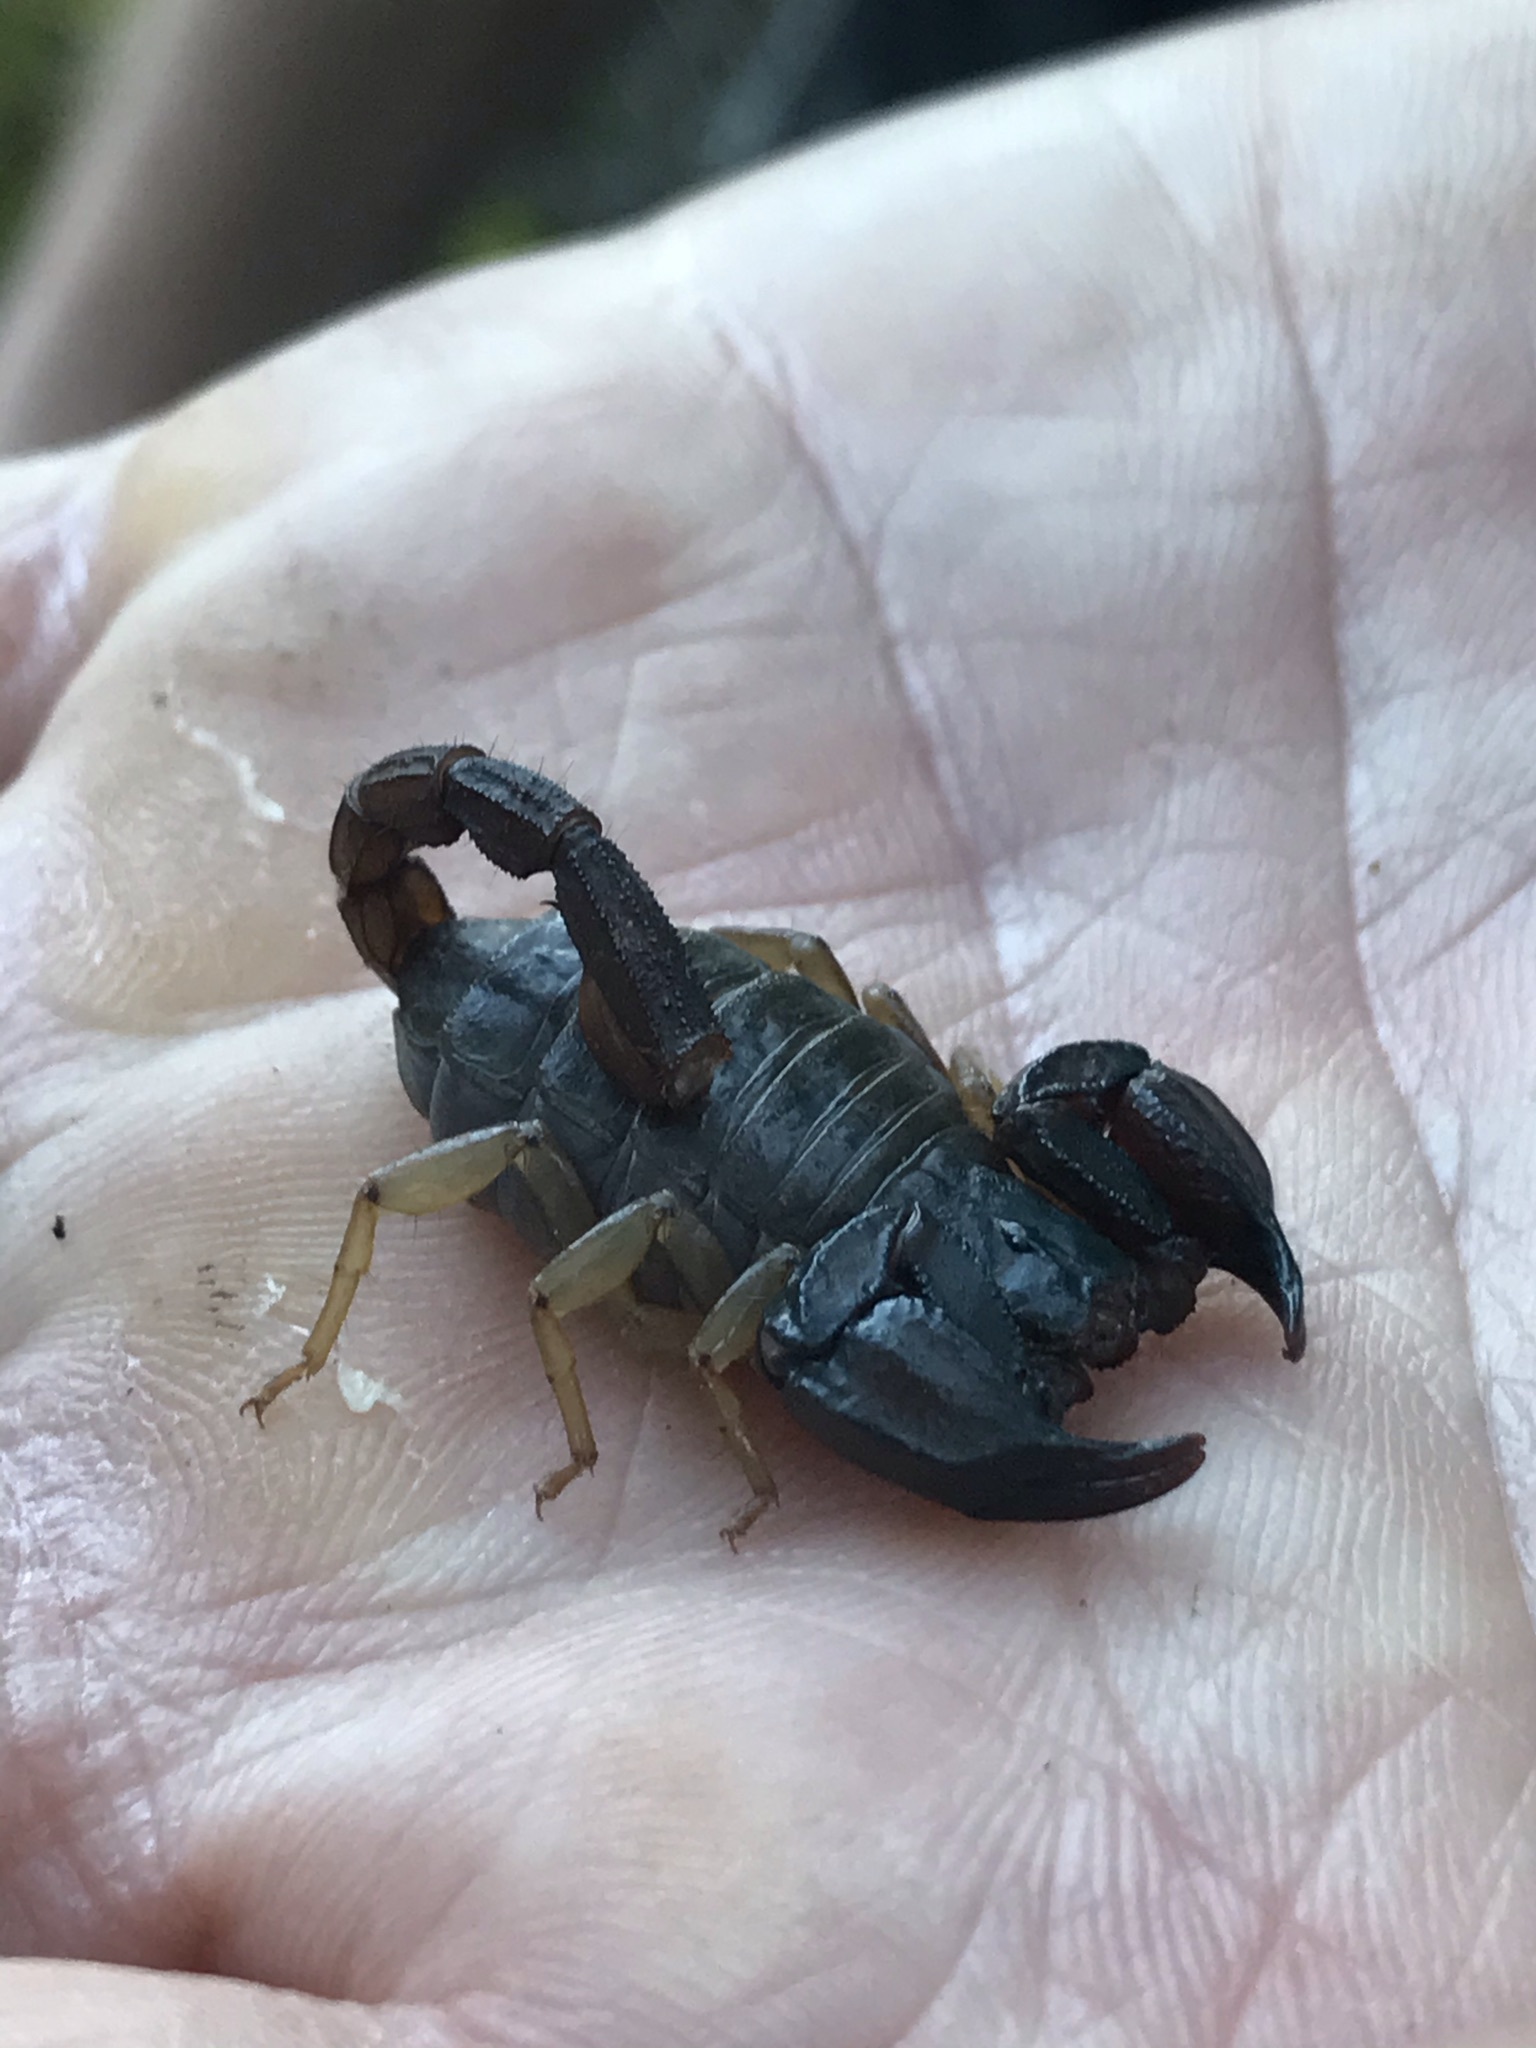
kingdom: Animalia
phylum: Arthropoda
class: Arachnida
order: Scorpiones
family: Chactidae
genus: Uroctonus
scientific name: Uroctonus mordax
